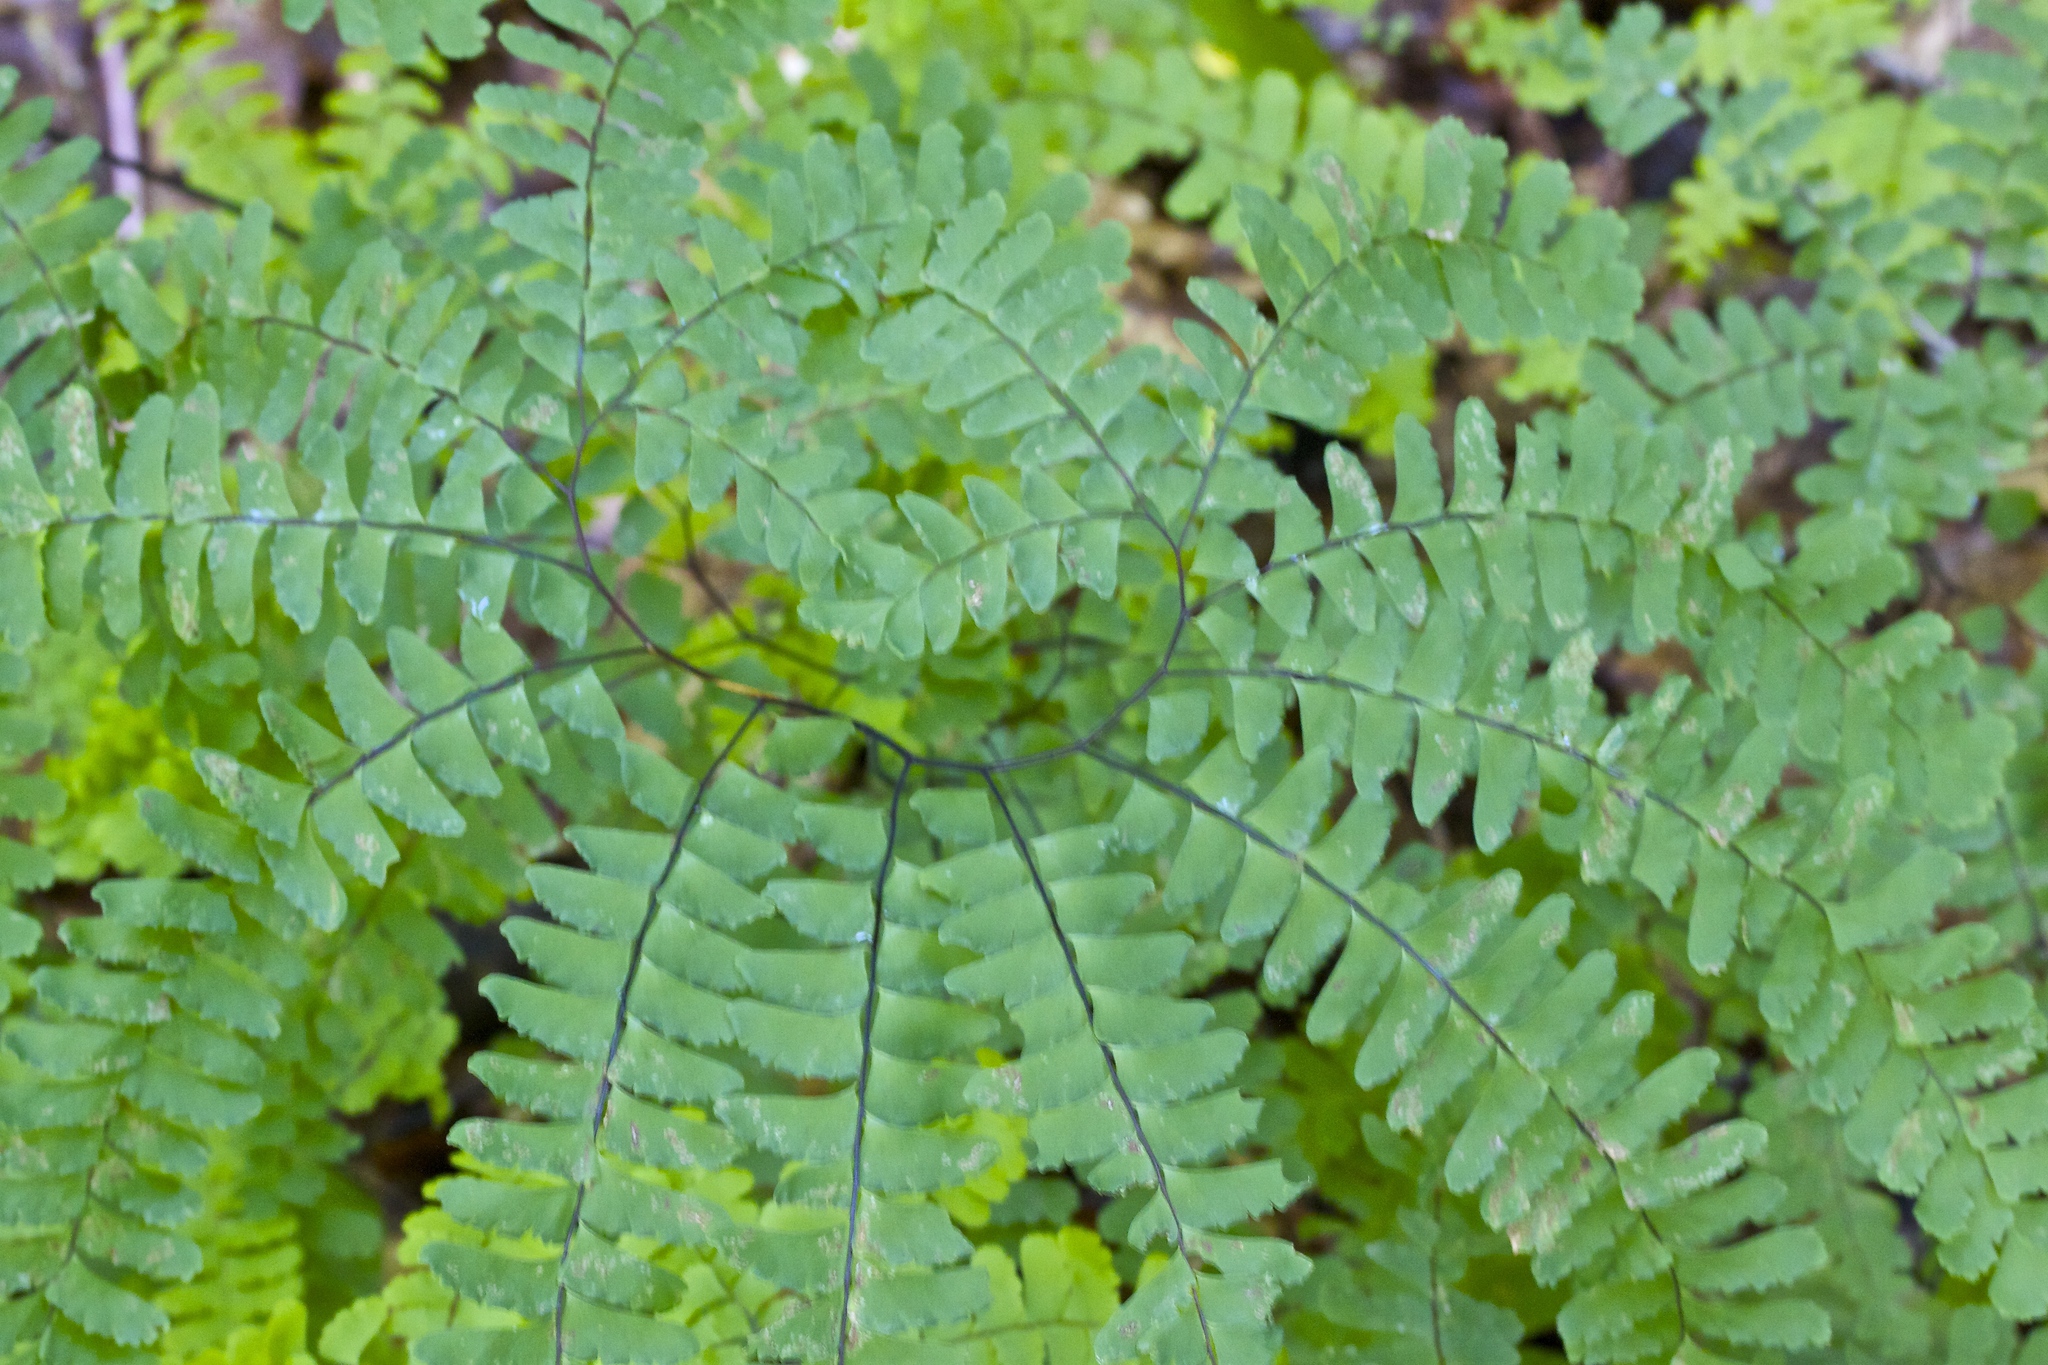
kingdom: Plantae
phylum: Tracheophyta
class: Polypodiopsida
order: Polypodiales
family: Pteridaceae
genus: Adiantum
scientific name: Adiantum pedatum
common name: Five-finger fern
